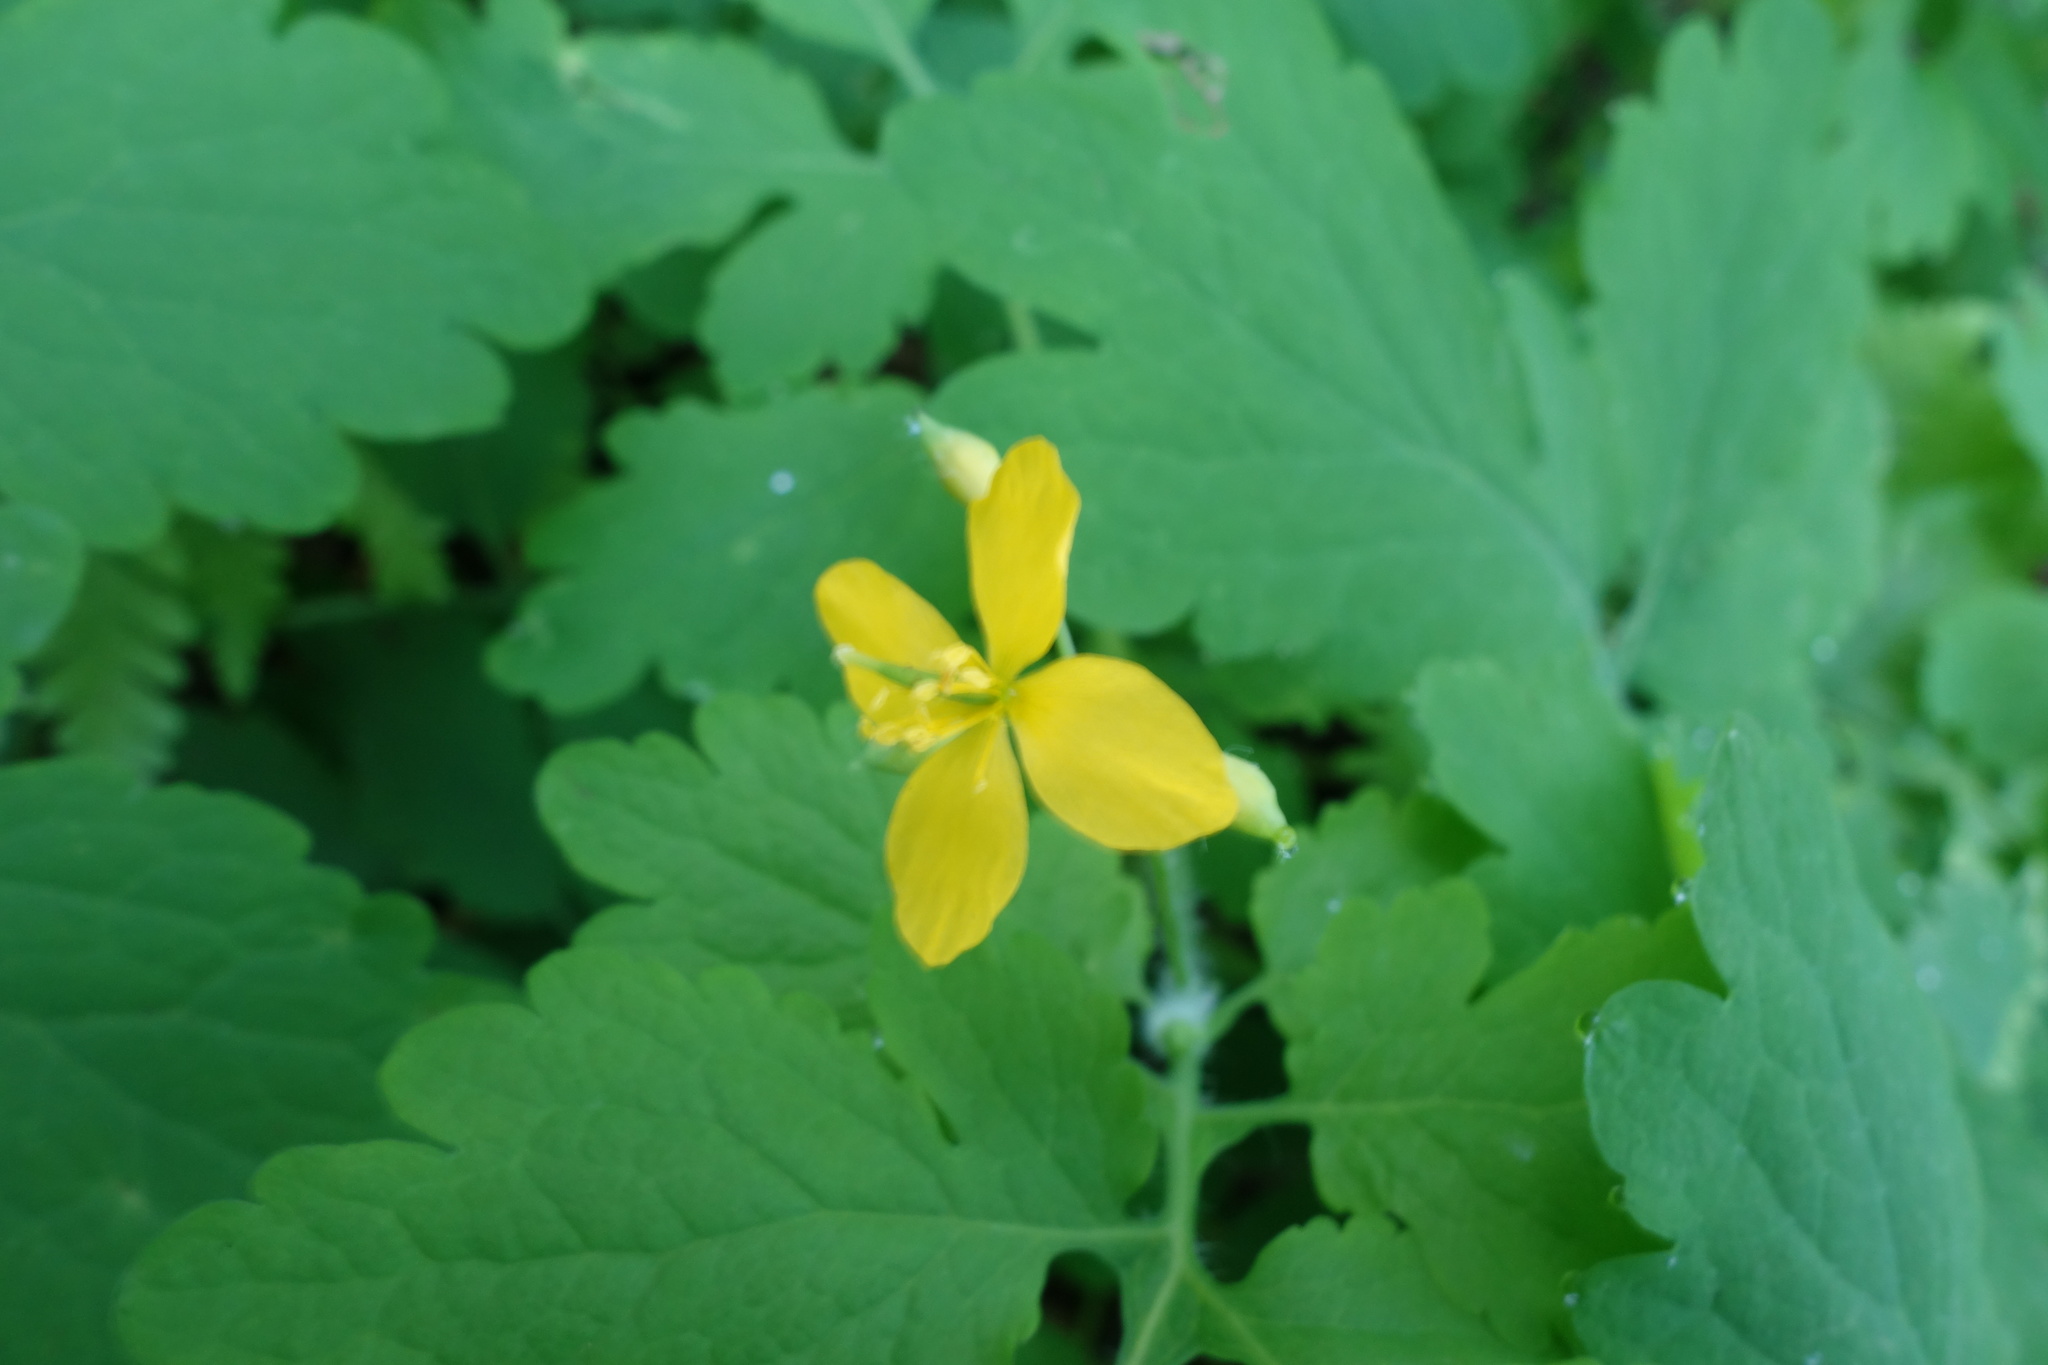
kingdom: Plantae
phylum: Tracheophyta
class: Magnoliopsida
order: Ranunculales
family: Papaveraceae
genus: Chelidonium
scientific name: Chelidonium majus
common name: Greater celandine
